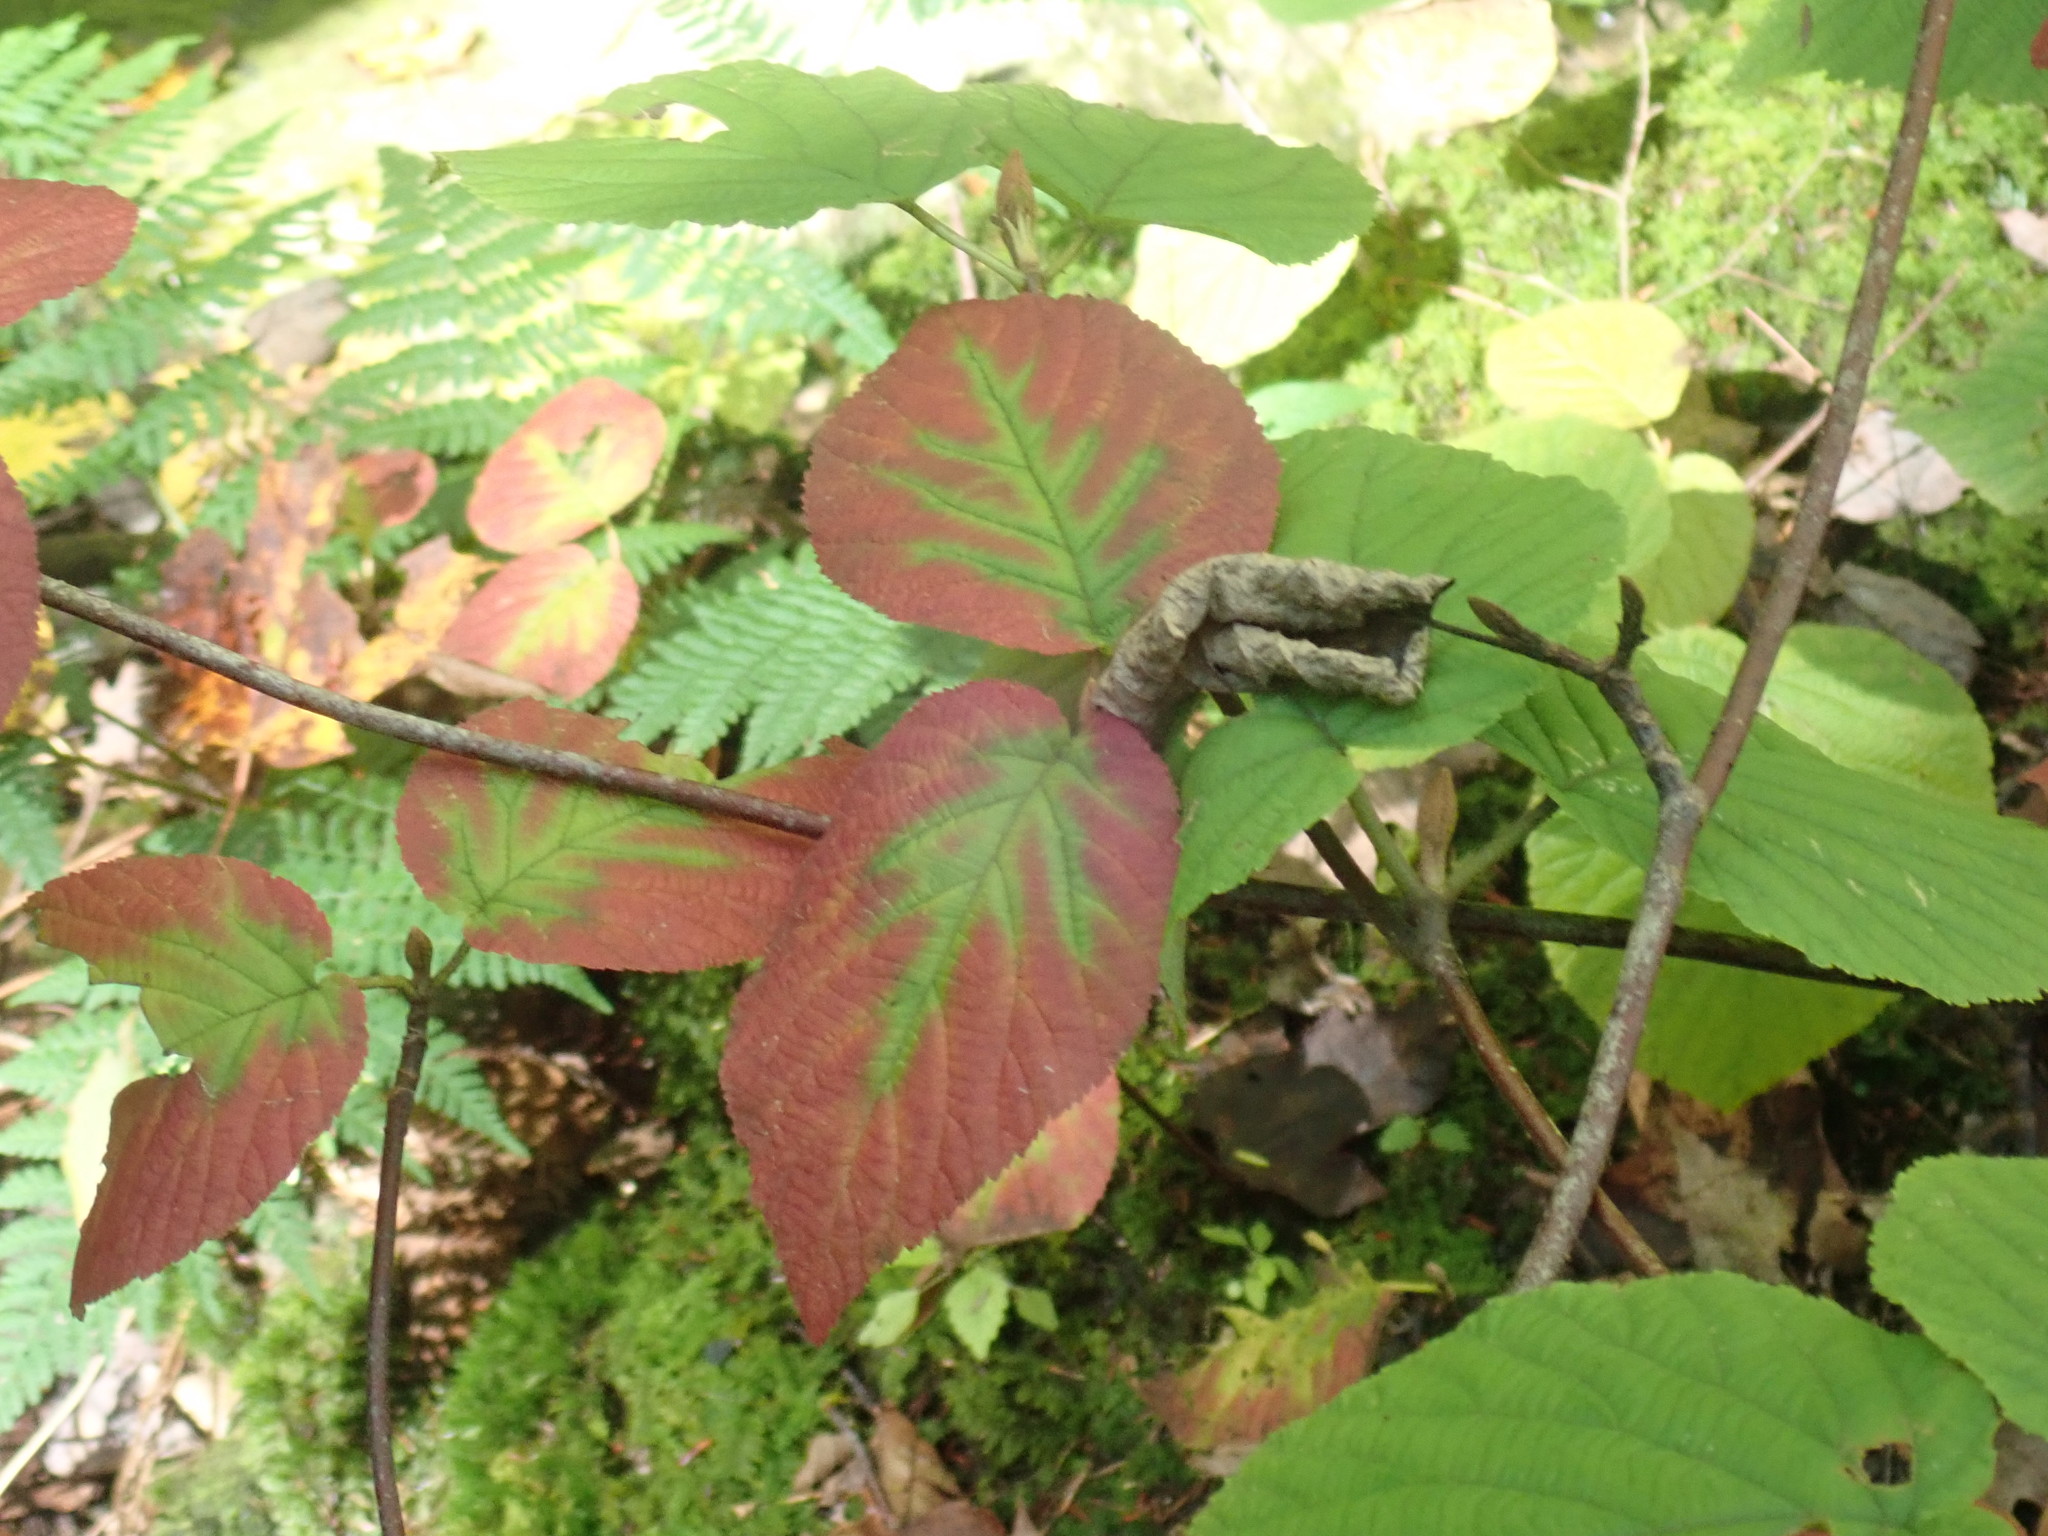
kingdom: Plantae
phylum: Tracheophyta
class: Magnoliopsida
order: Dipsacales
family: Viburnaceae
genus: Viburnum
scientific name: Viburnum lantanoides
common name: Hobblebush
